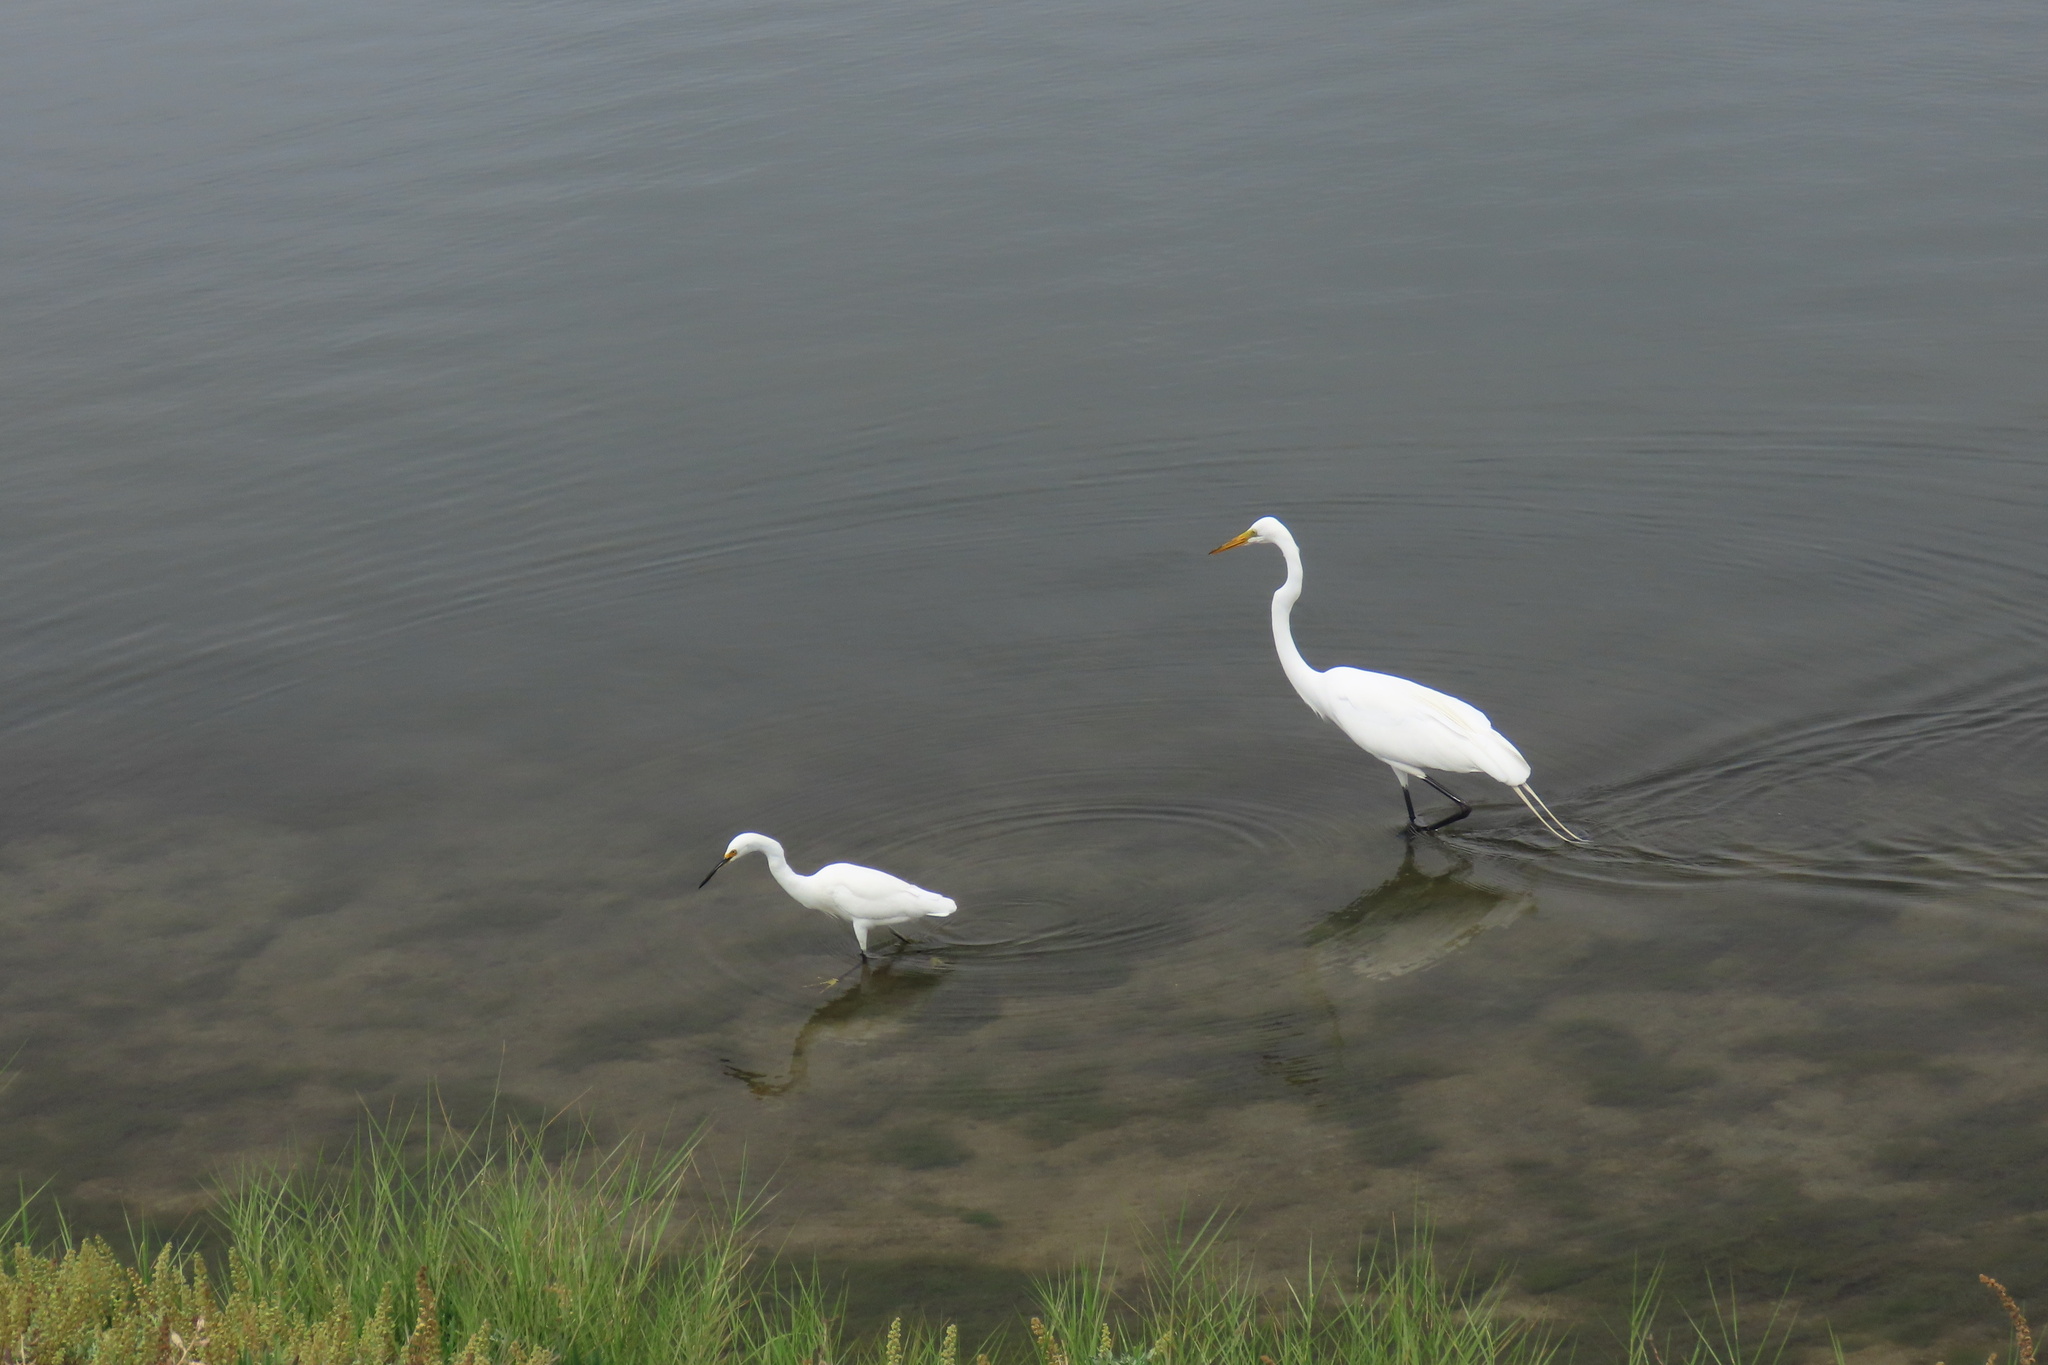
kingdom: Animalia
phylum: Chordata
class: Aves
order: Pelecaniformes
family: Ardeidae
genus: Ardea
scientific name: Ardea alba
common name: Great egret
